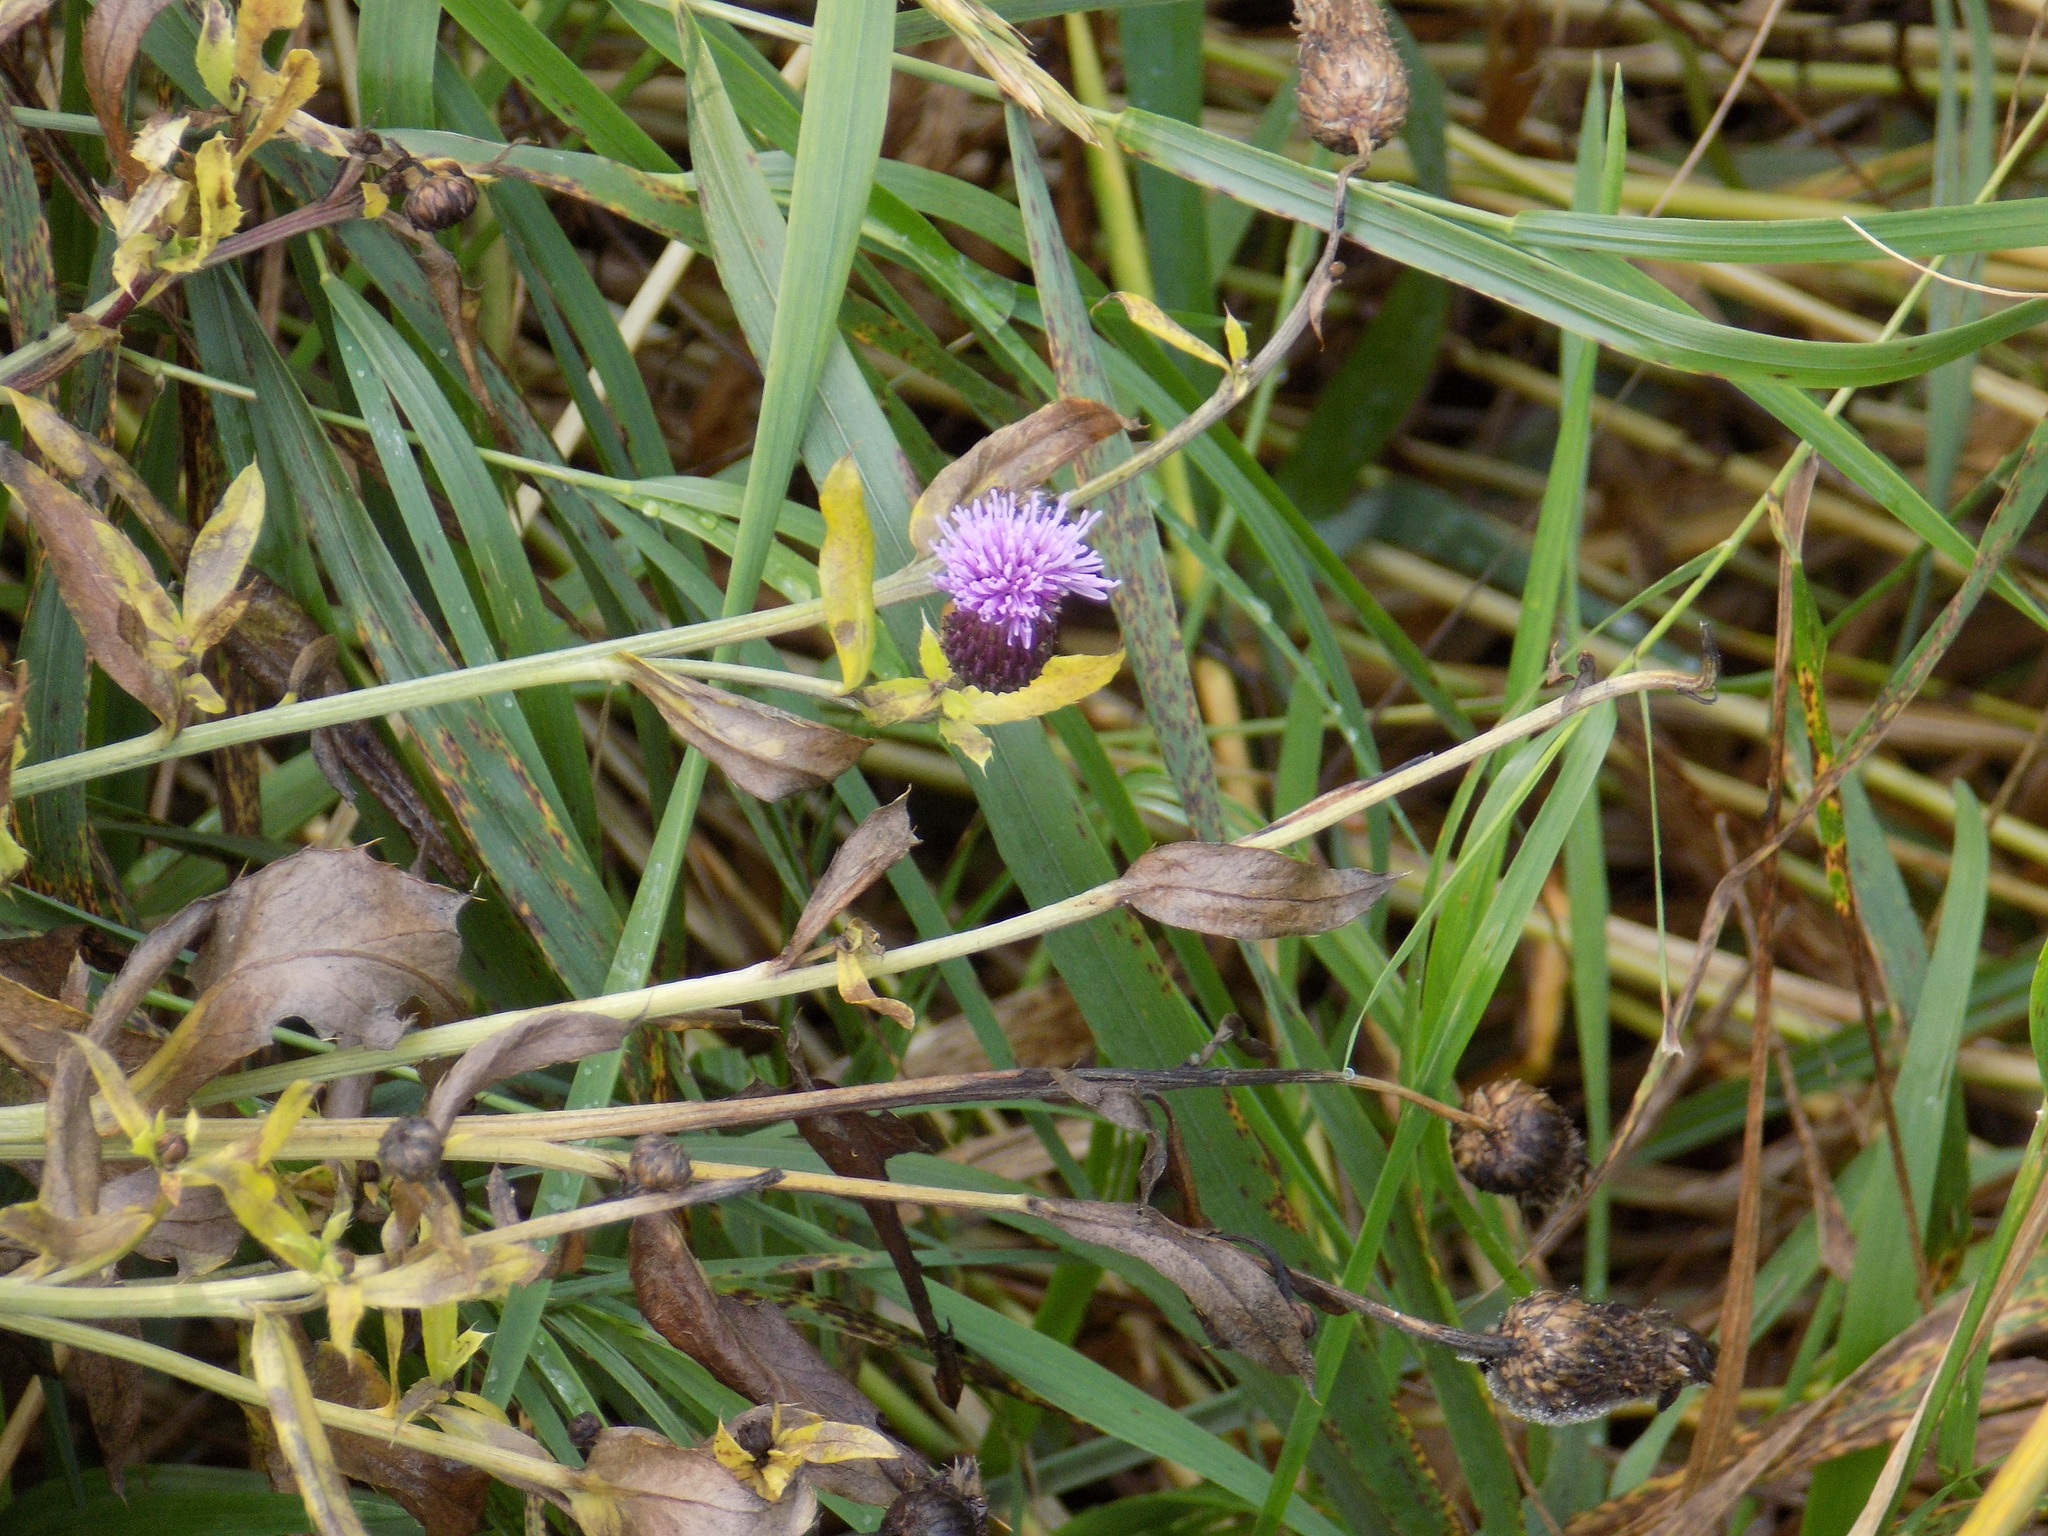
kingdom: Plantae
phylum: Tracheophyta
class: Magnoliopsida
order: Asterales
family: Asteraceae
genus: Cirsium
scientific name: Cirsium arvense
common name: Creeping thistle
